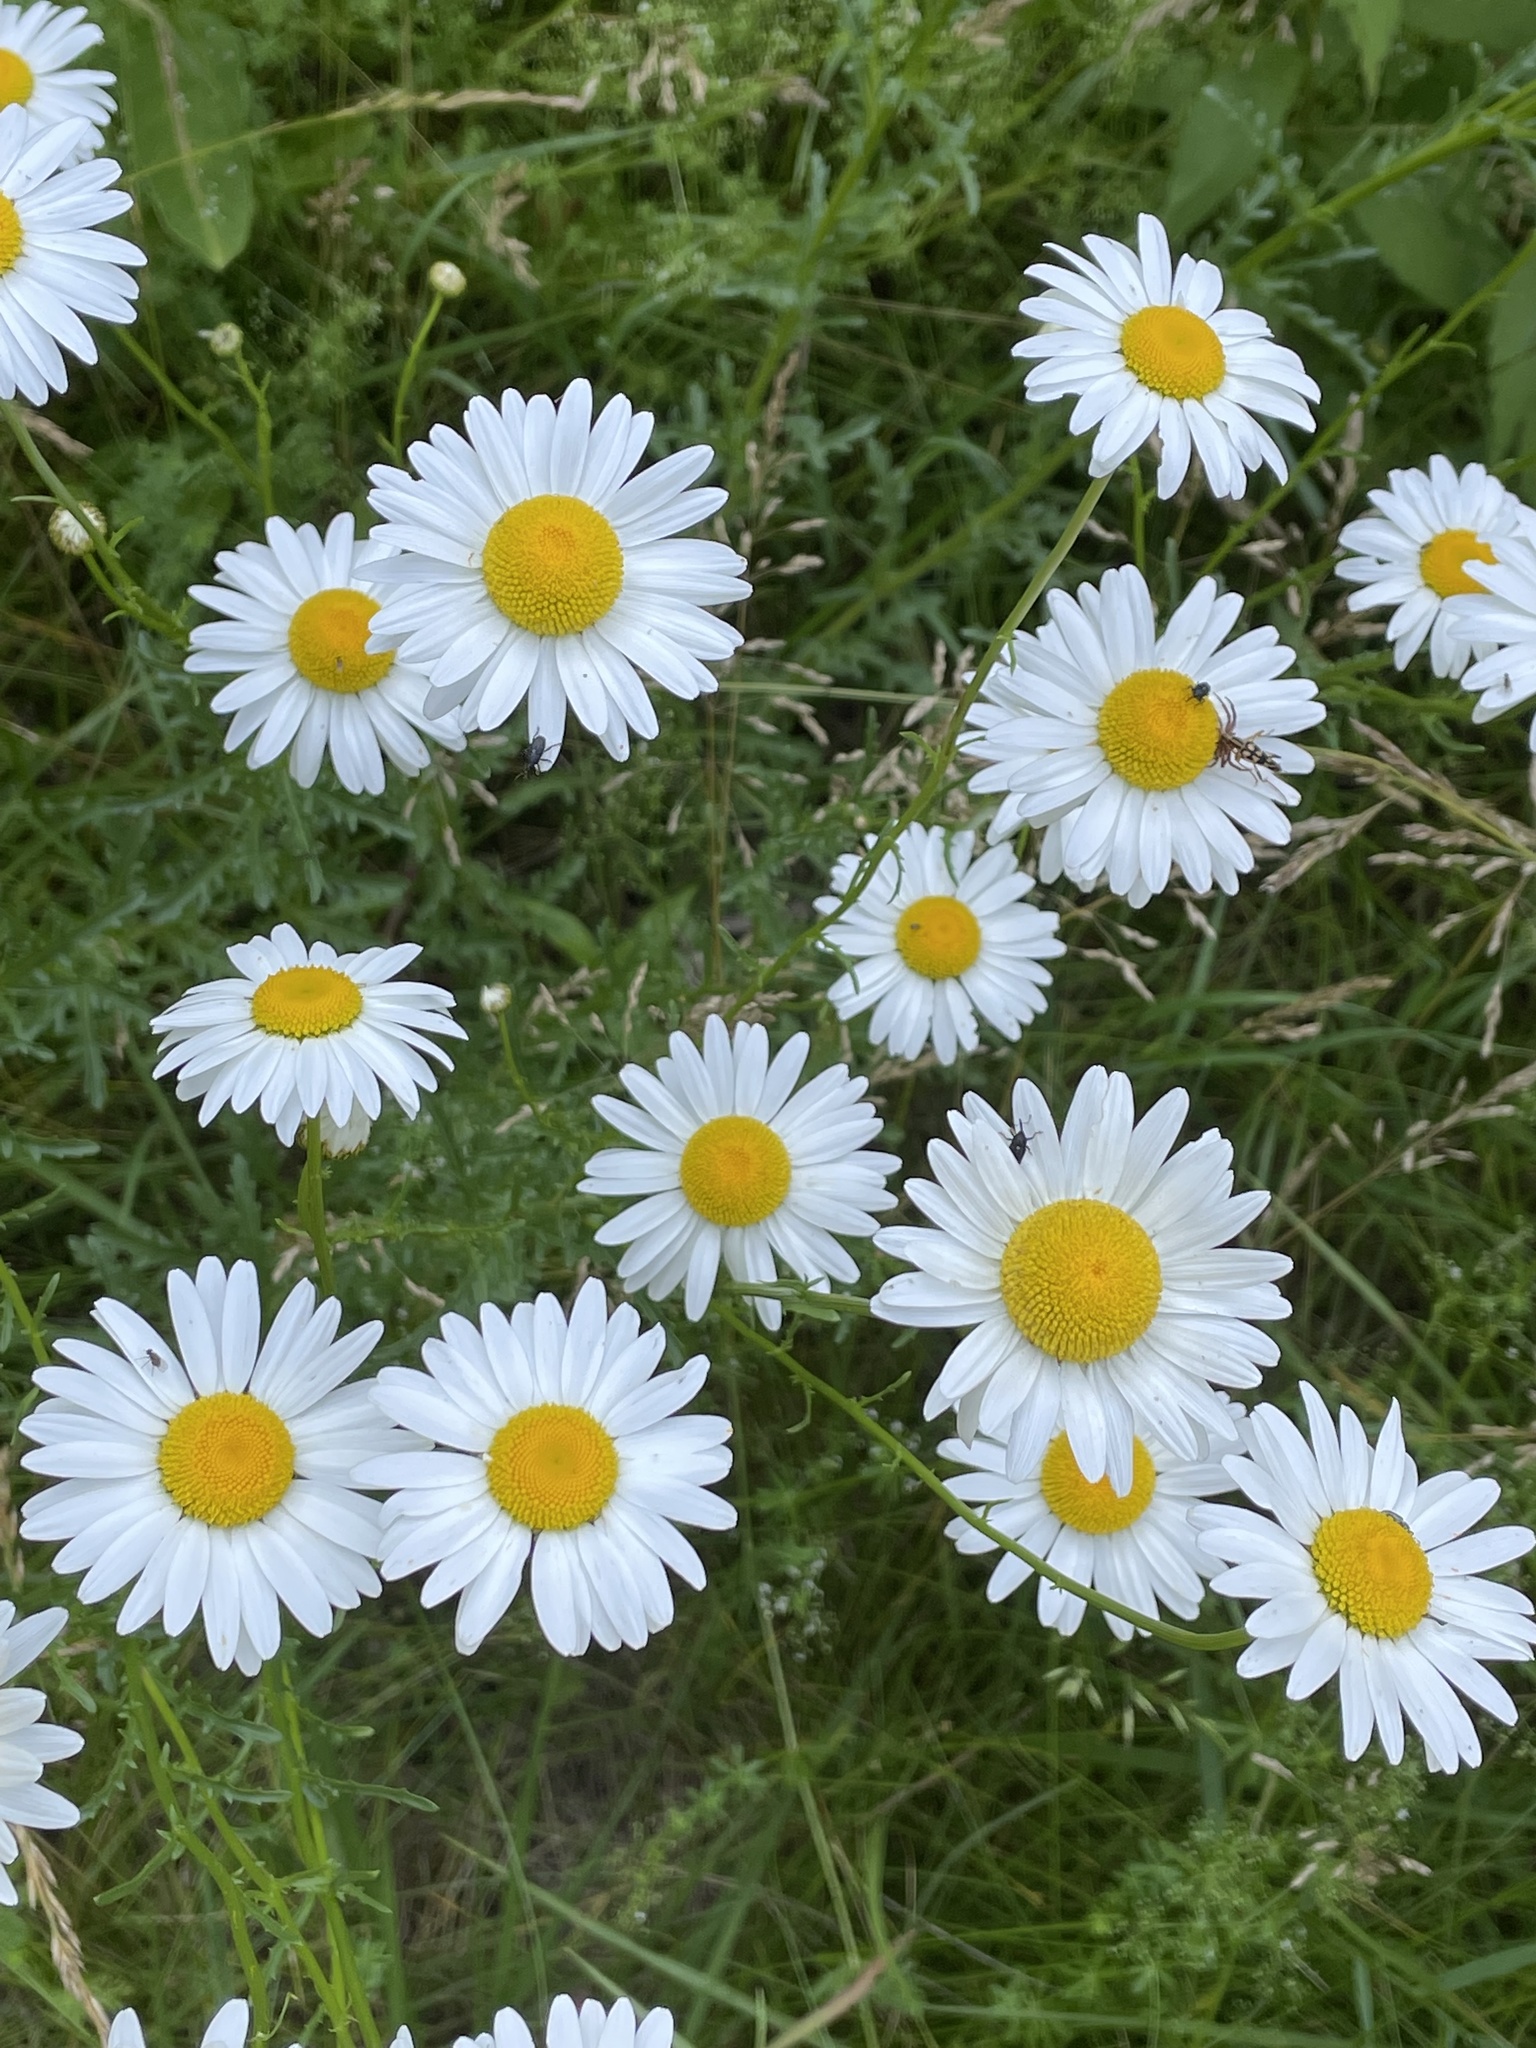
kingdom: Plantae
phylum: Tracheophyta
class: Magnoliopsida
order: Asterales
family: Asteraceae
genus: Leucanthemum
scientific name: Leucanthemum vulgare
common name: Oxeye daisy
